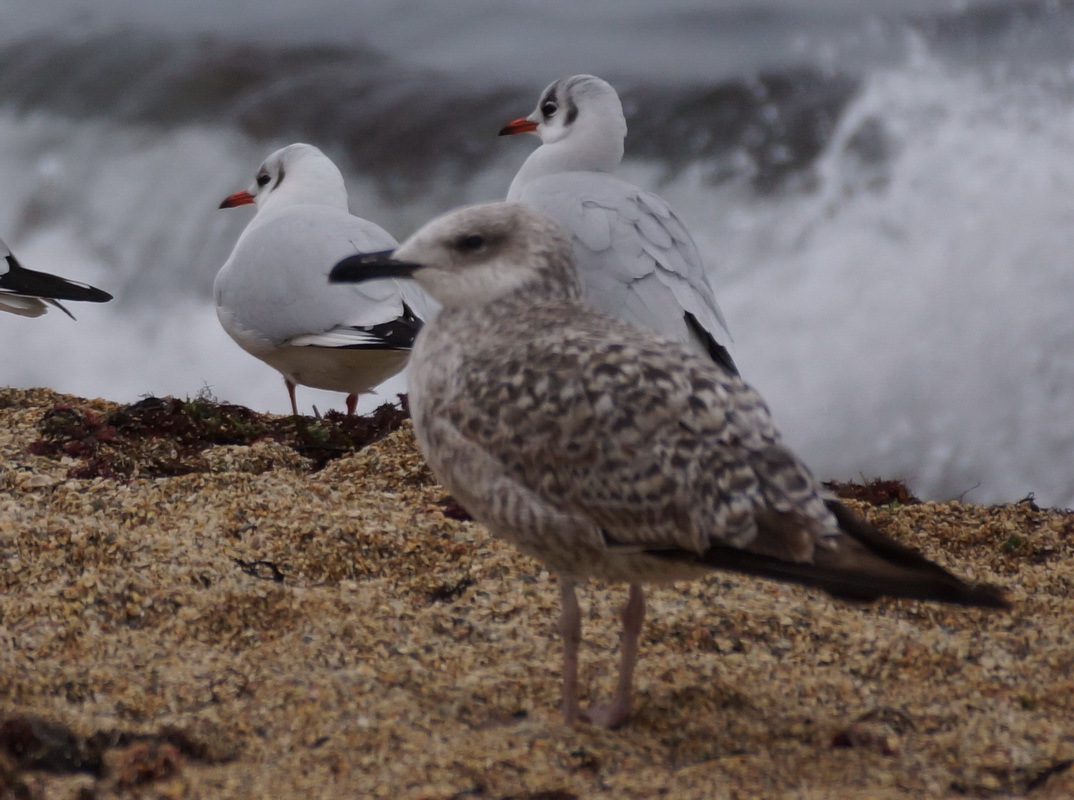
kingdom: Animalia
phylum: Chordata
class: Aves
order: Charadriiformes
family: Laridae
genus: Larus
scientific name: Larus michahellis
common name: Yellow-legged gull
